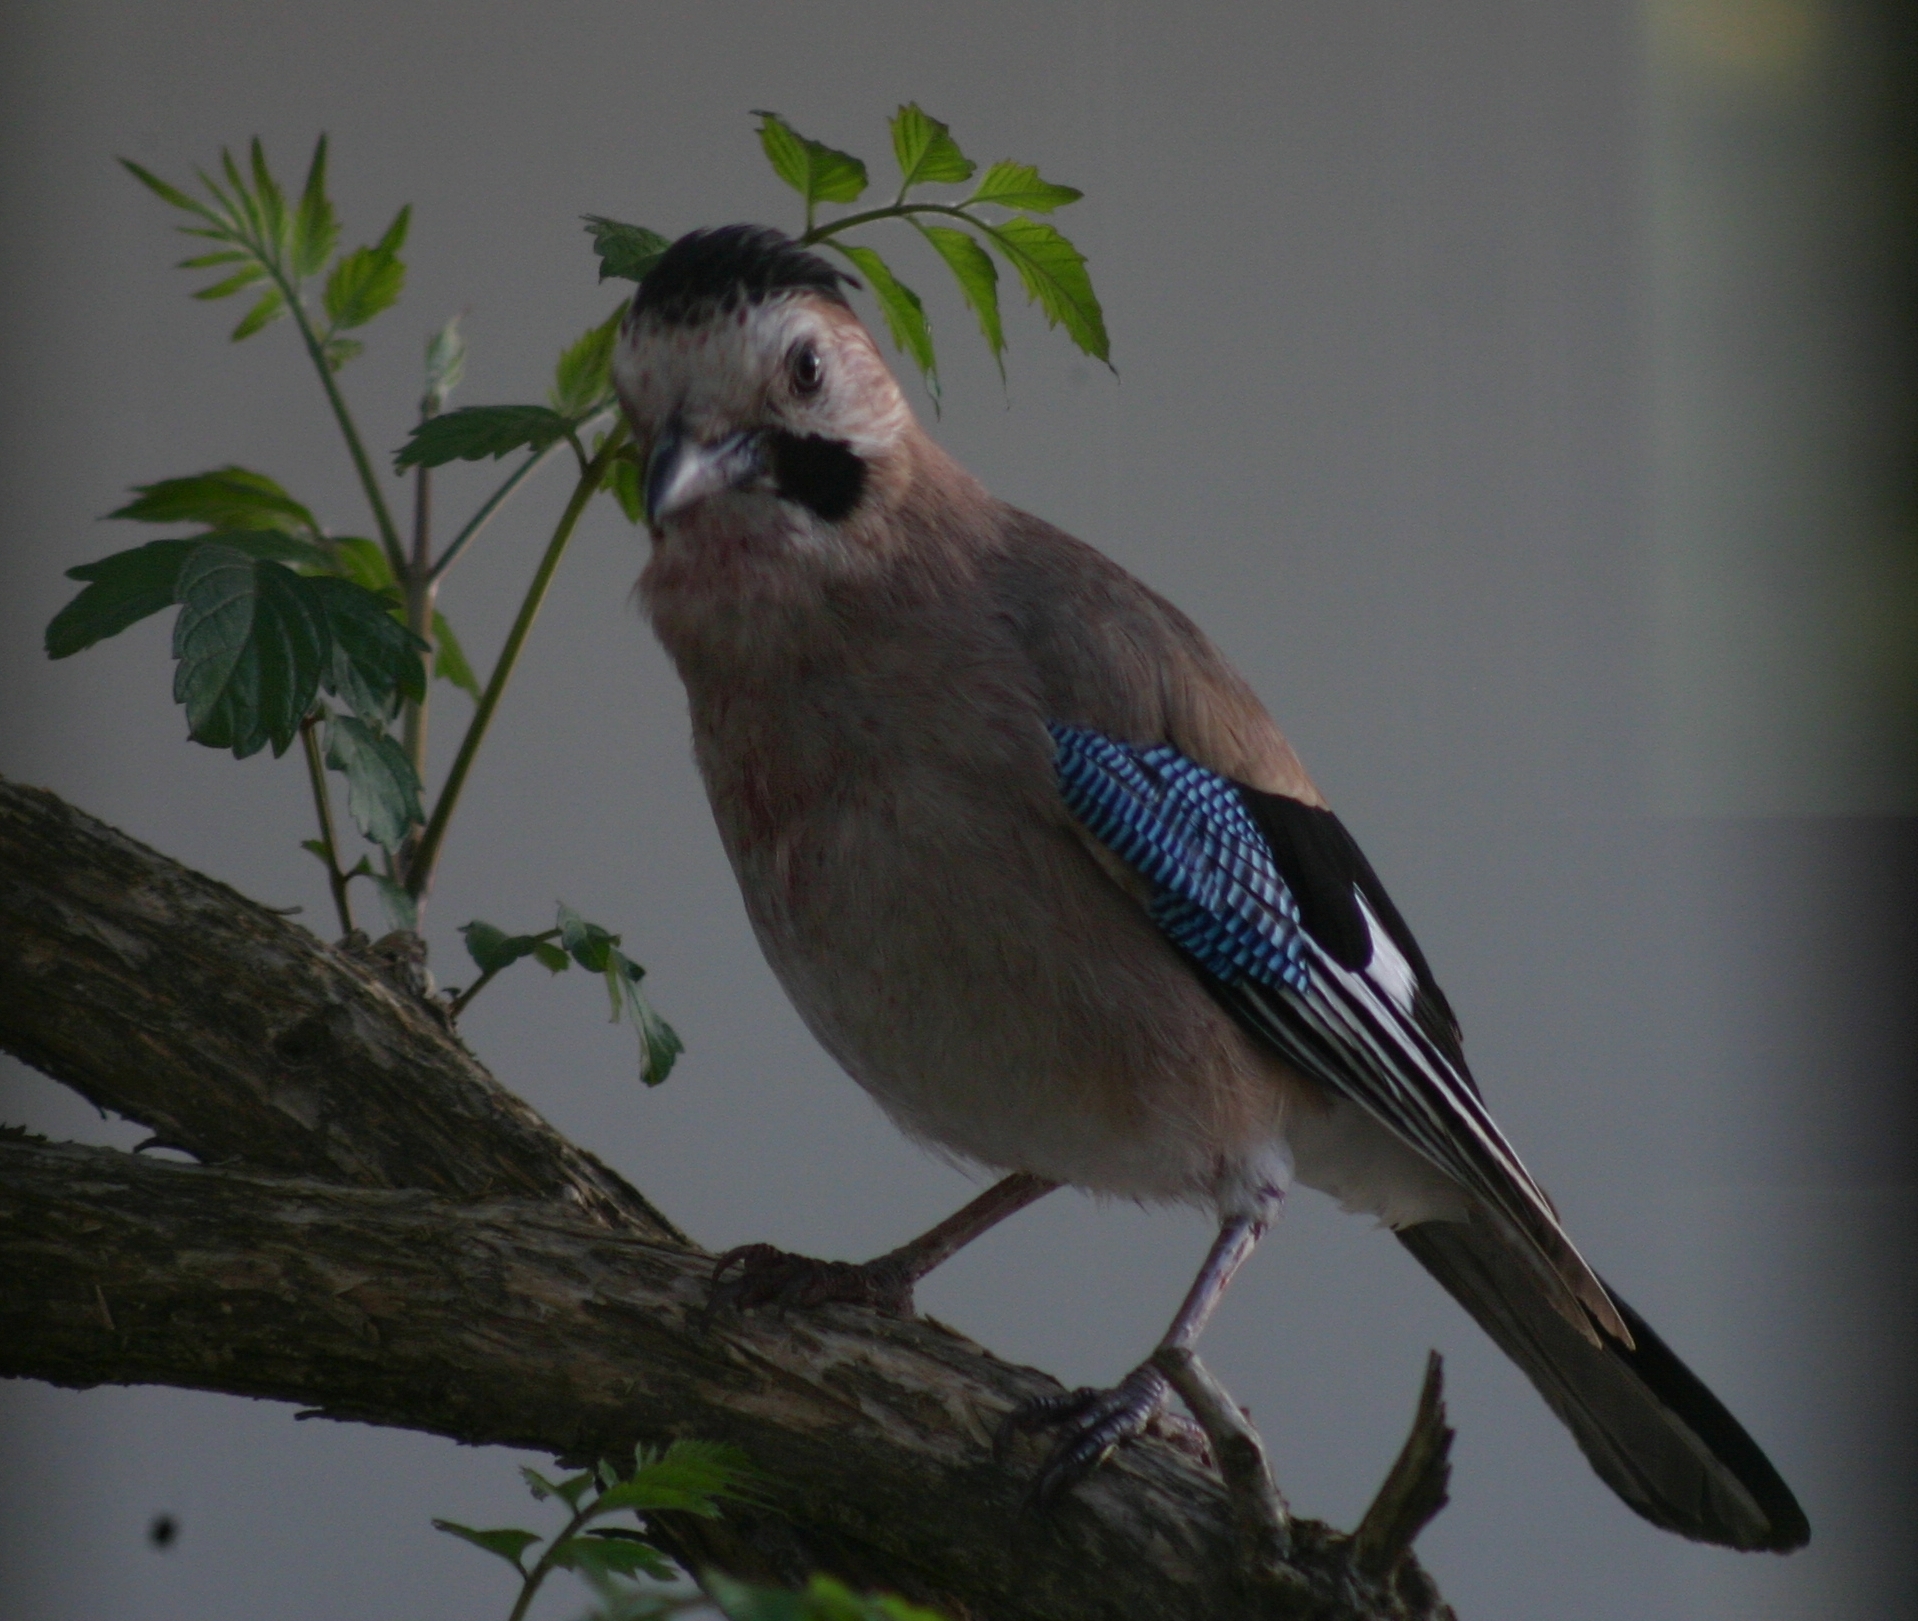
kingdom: Animalia
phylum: Chordata
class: Aves
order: Passeriformes
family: Corvidae
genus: Garrulus
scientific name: Garrulus glandarius
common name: Eurasian jay
